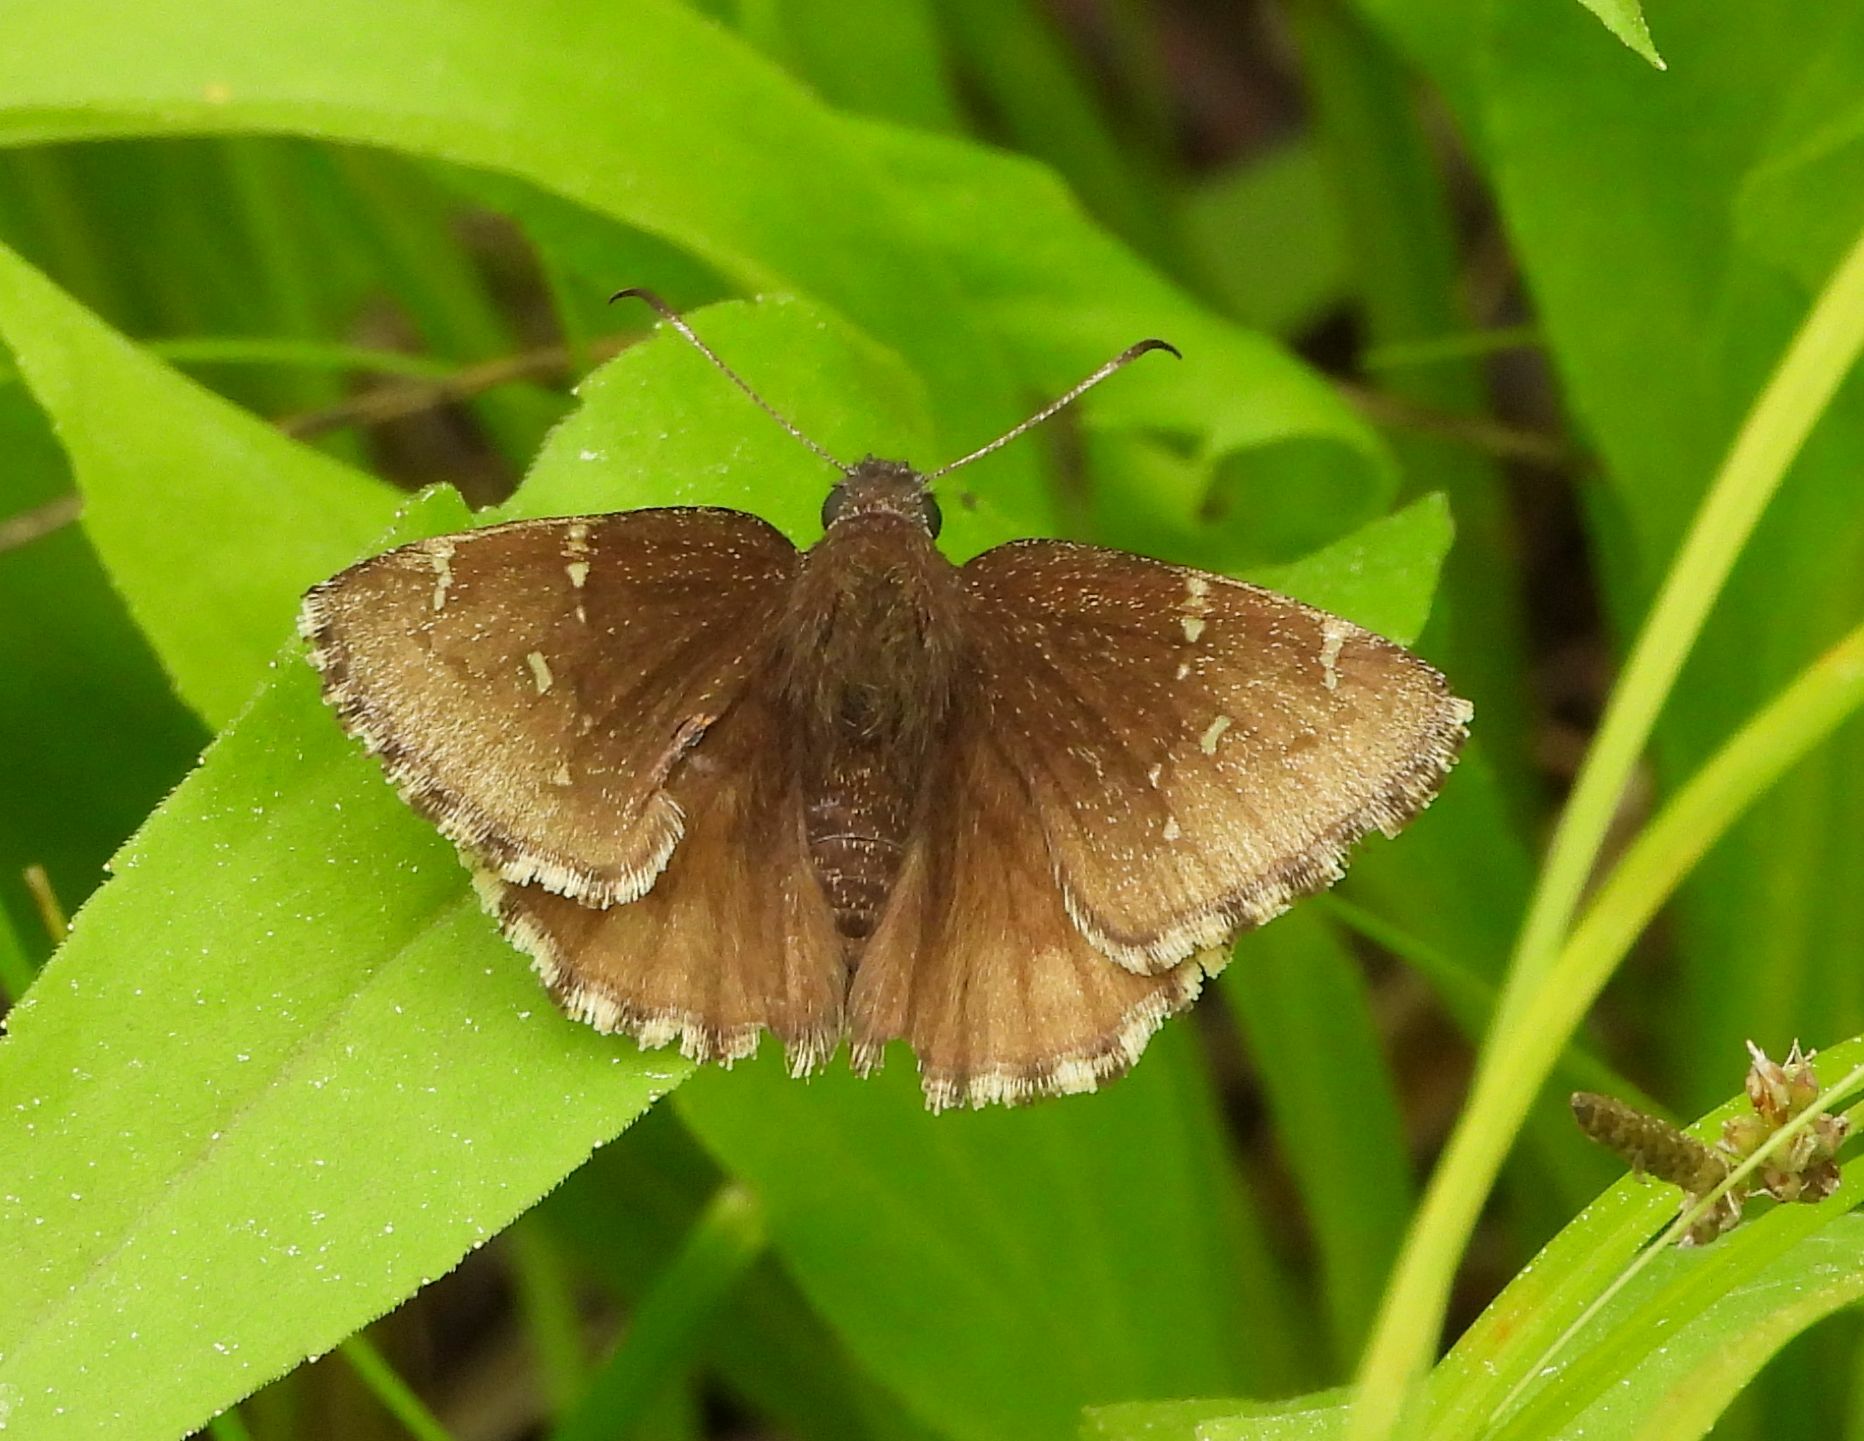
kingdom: Animalia
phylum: Arthropoda
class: Insecta
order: Lepidoptera
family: Hesperiidae
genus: Thorybes
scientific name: Thorybes pylades
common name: Northern cloudywing
